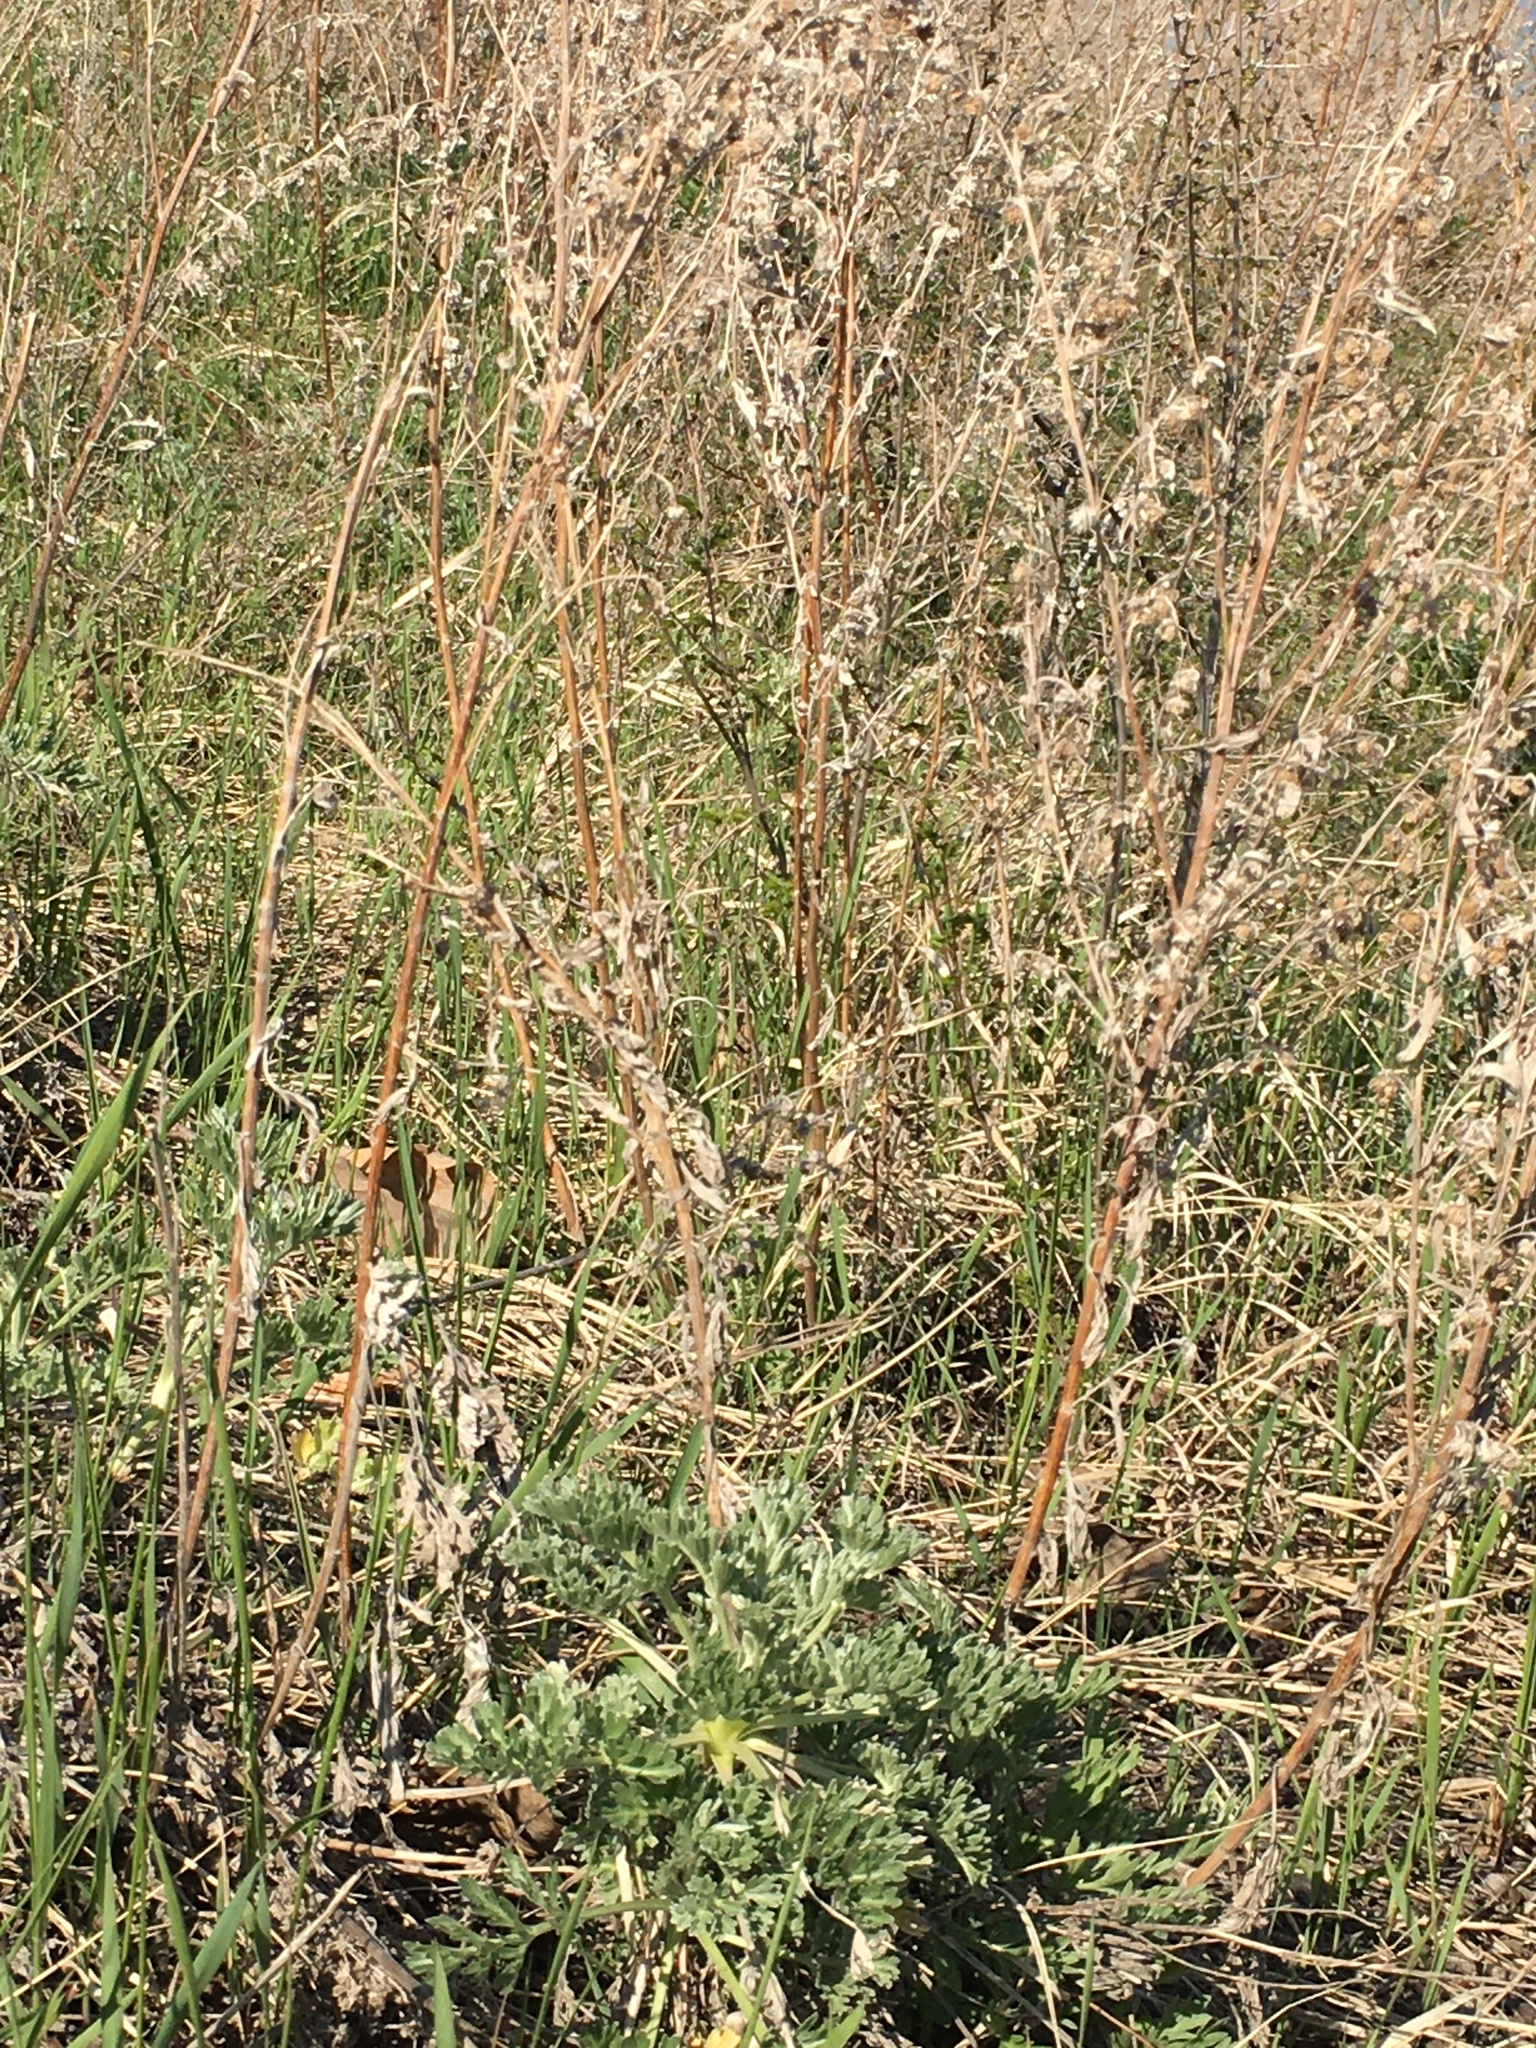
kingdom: Plantae
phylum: Tracheophyta
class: Magnoliopsida
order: Asterales
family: Asteraceae
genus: Artemisia
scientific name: Artemisia absinthium
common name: Wormwood
